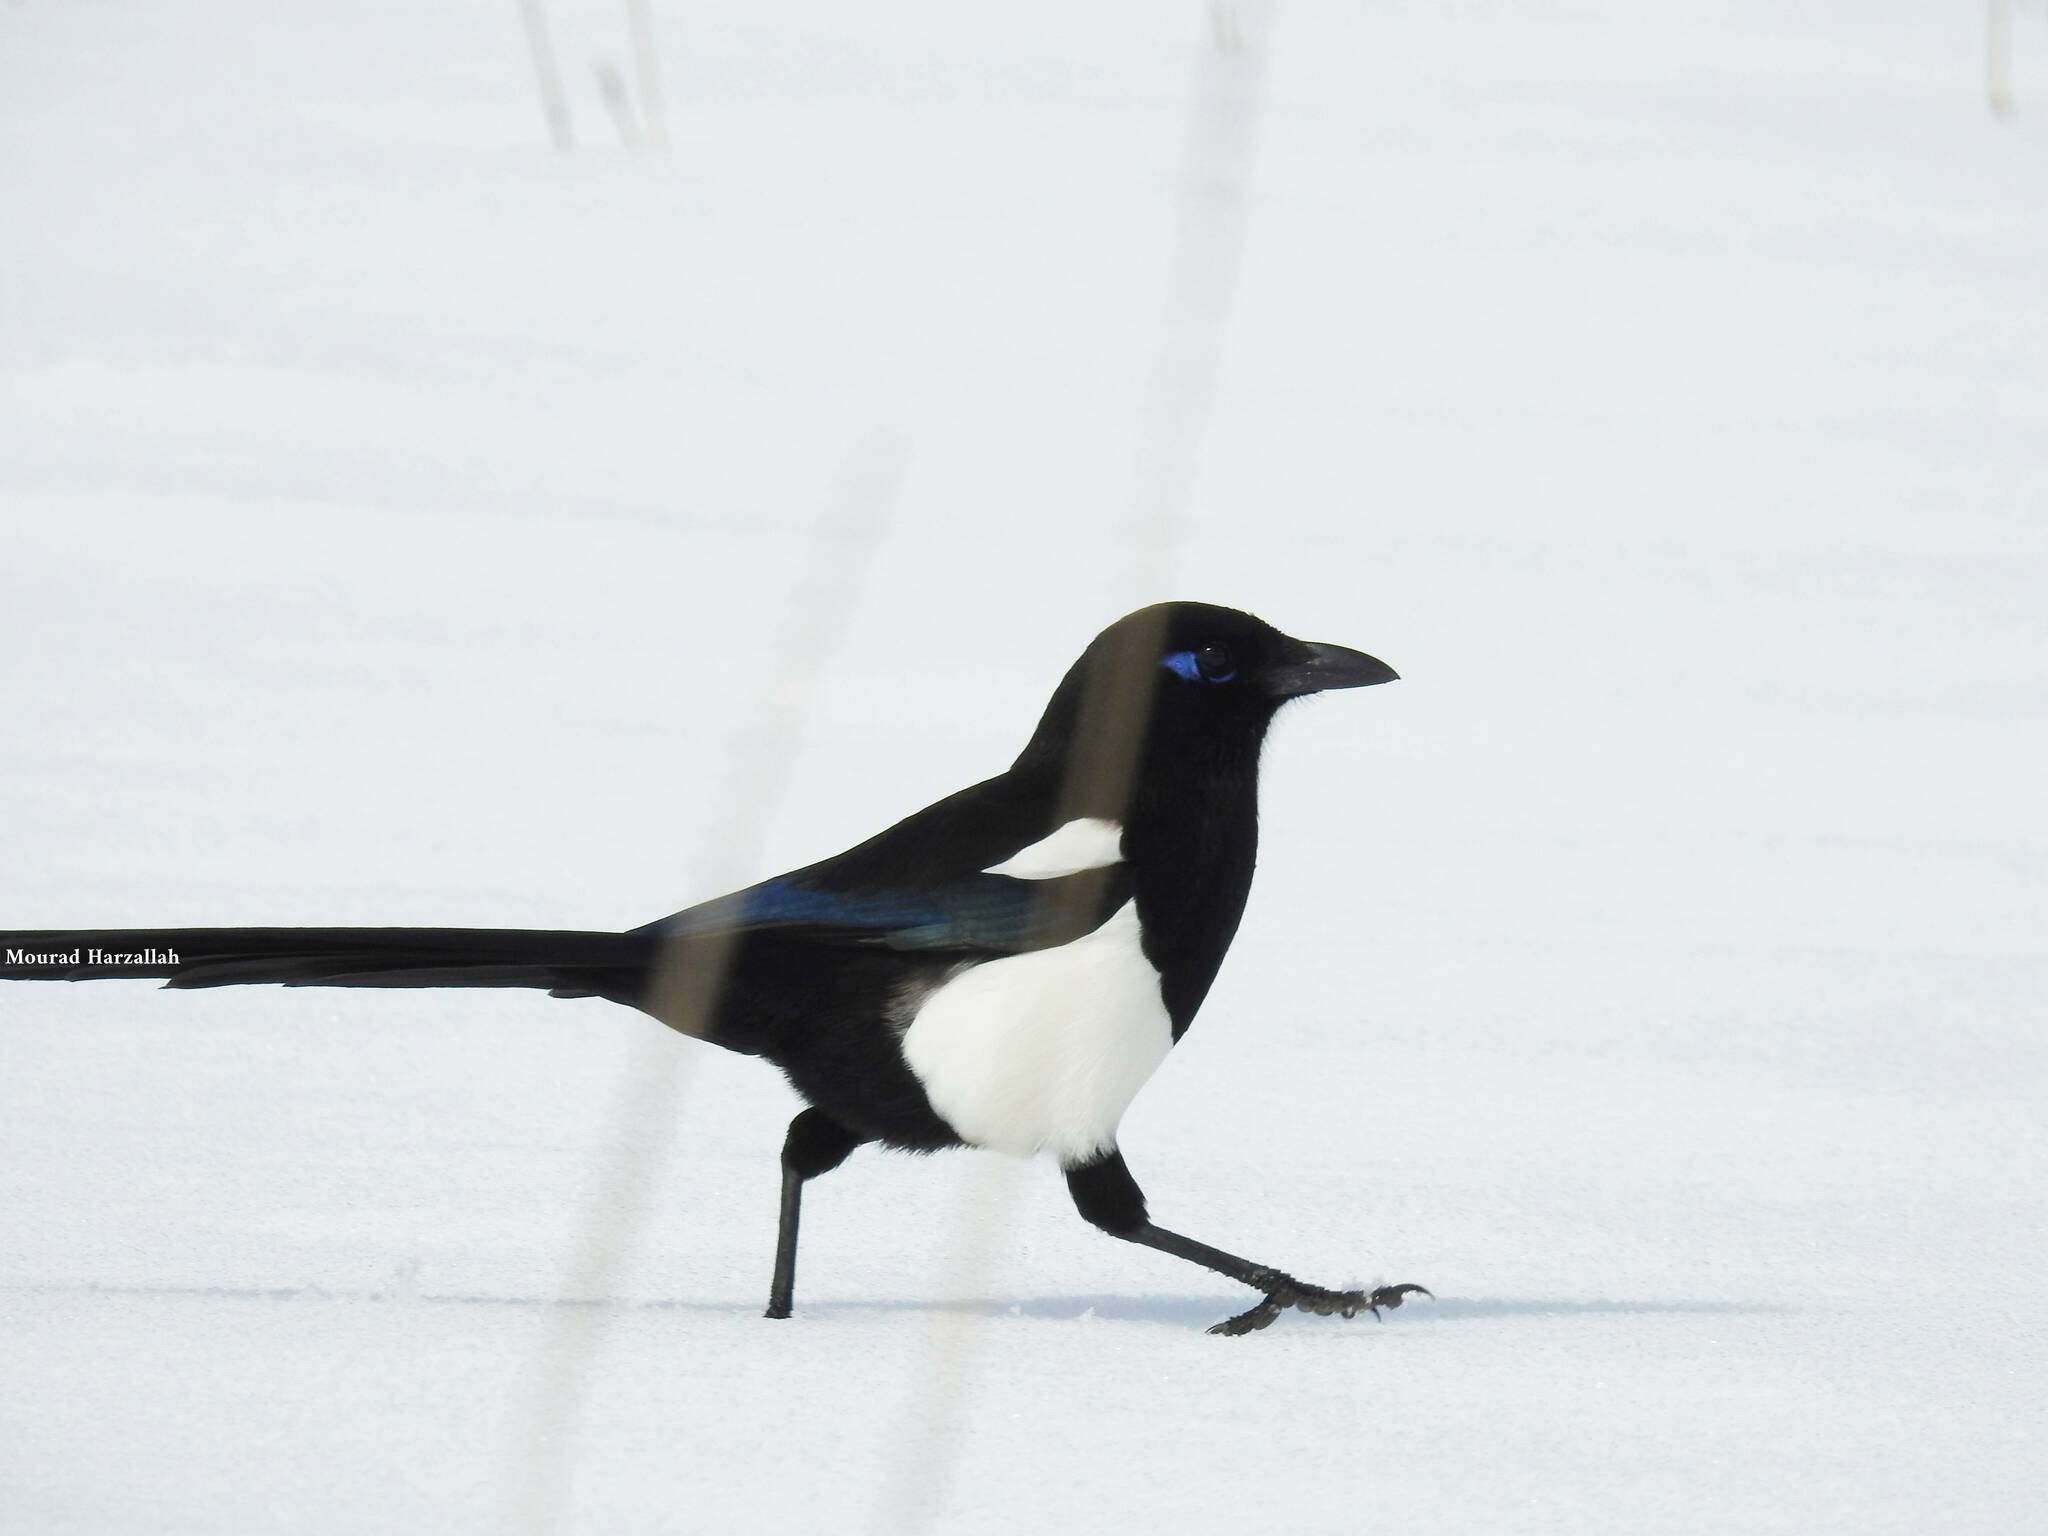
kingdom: Animalia
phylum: Chordata
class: Aves
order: Passeriformes
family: Corvidae
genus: Pica
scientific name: Pica mauritanica
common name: Maghreb magpie
